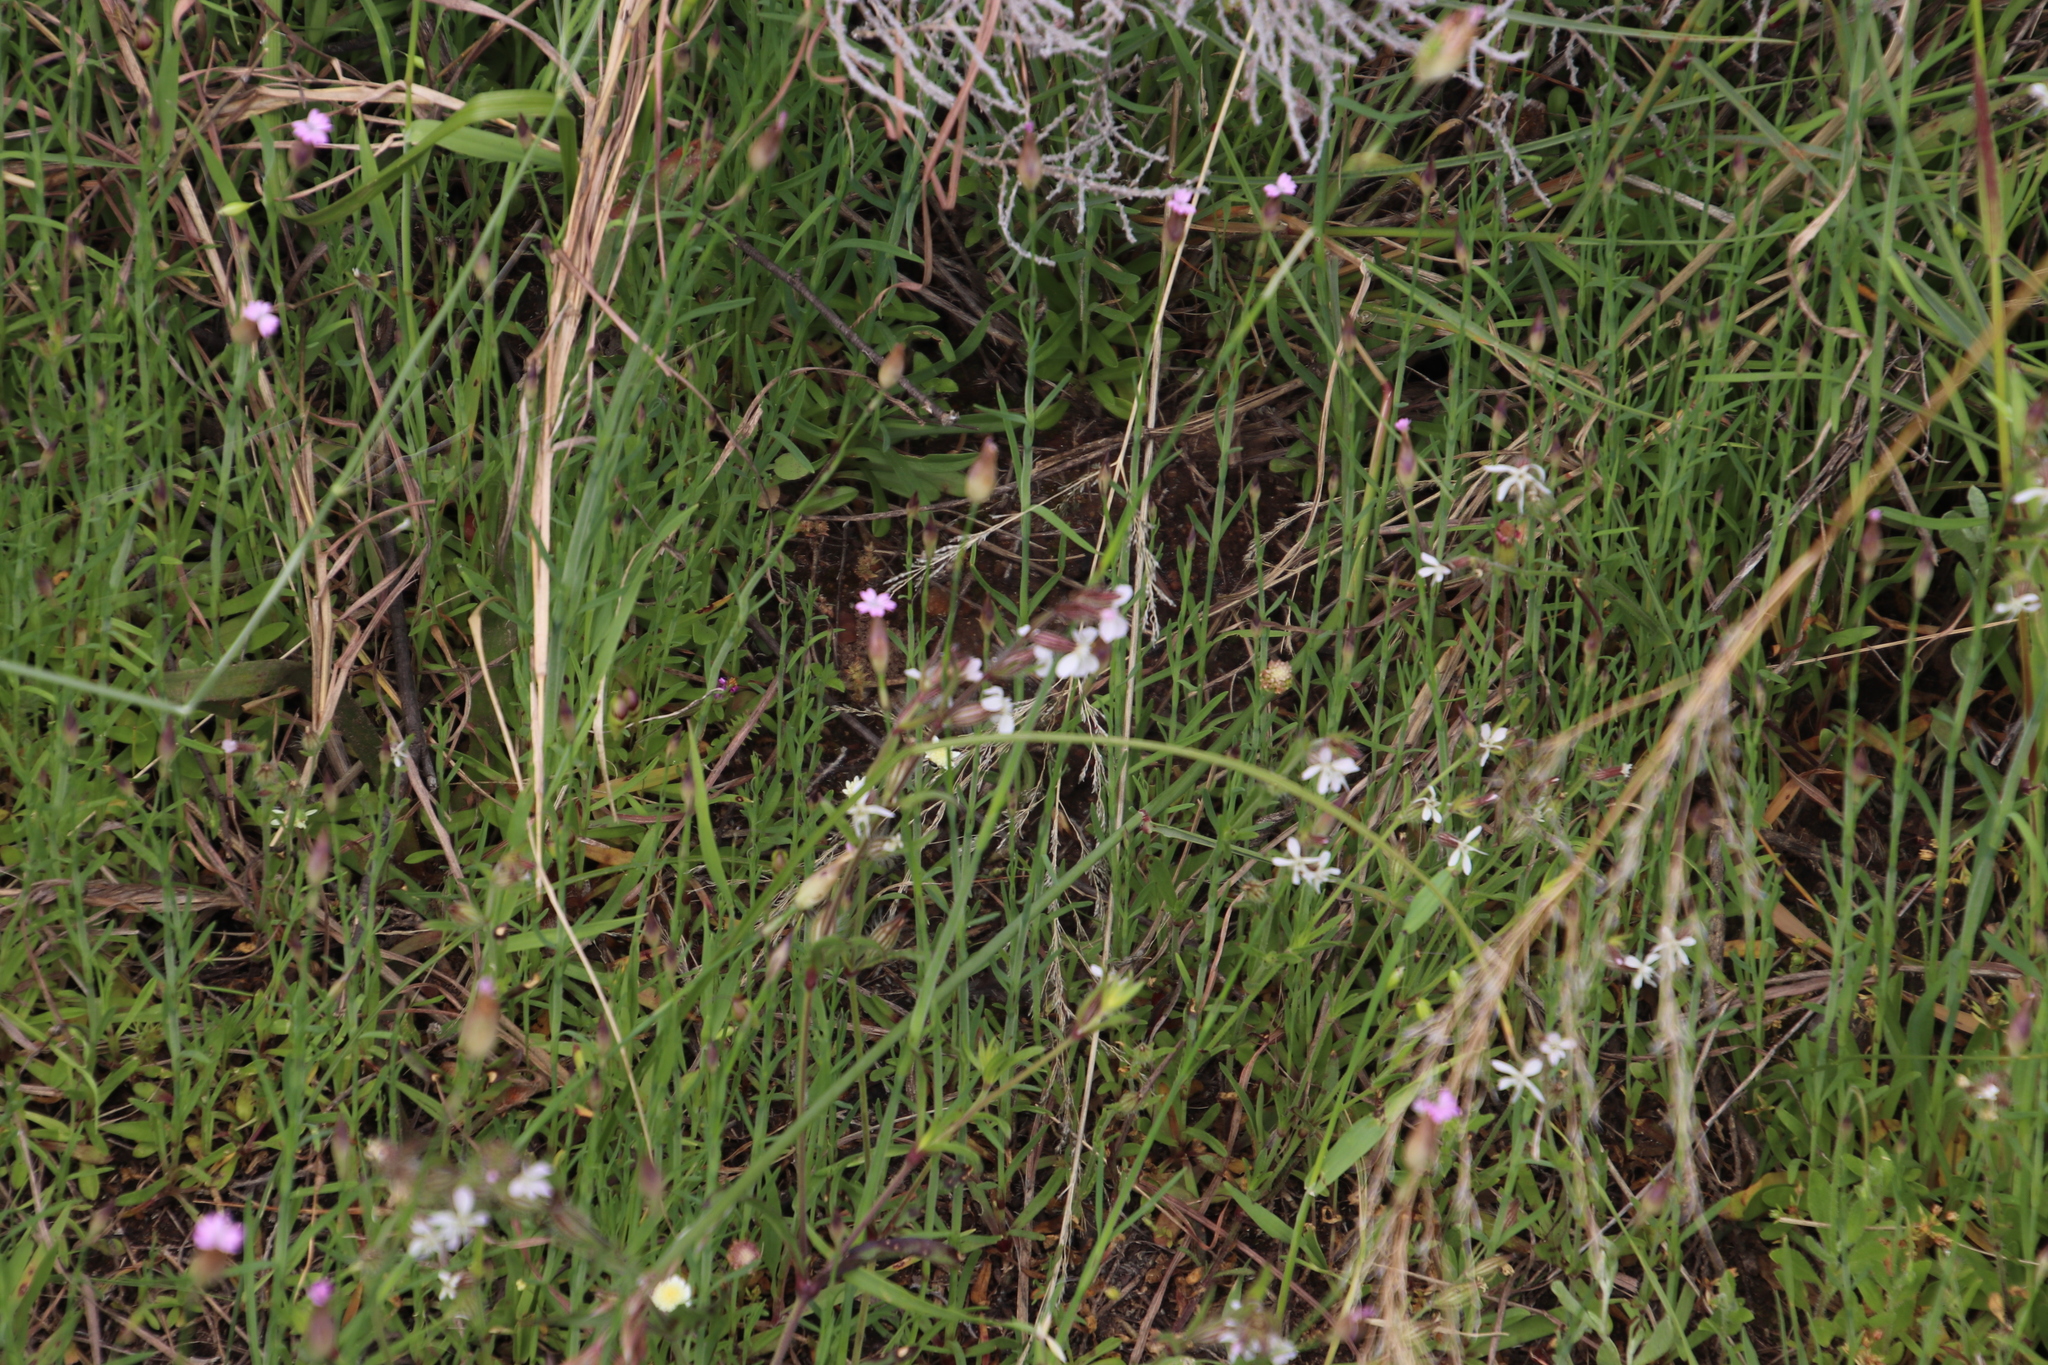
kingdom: Plantae
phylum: Tracheophyta
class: Magnoliopsida
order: Caryophyllales
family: Caryophyllaceae
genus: Silene
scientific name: Silene gallica
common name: Small-flowered catchfly
